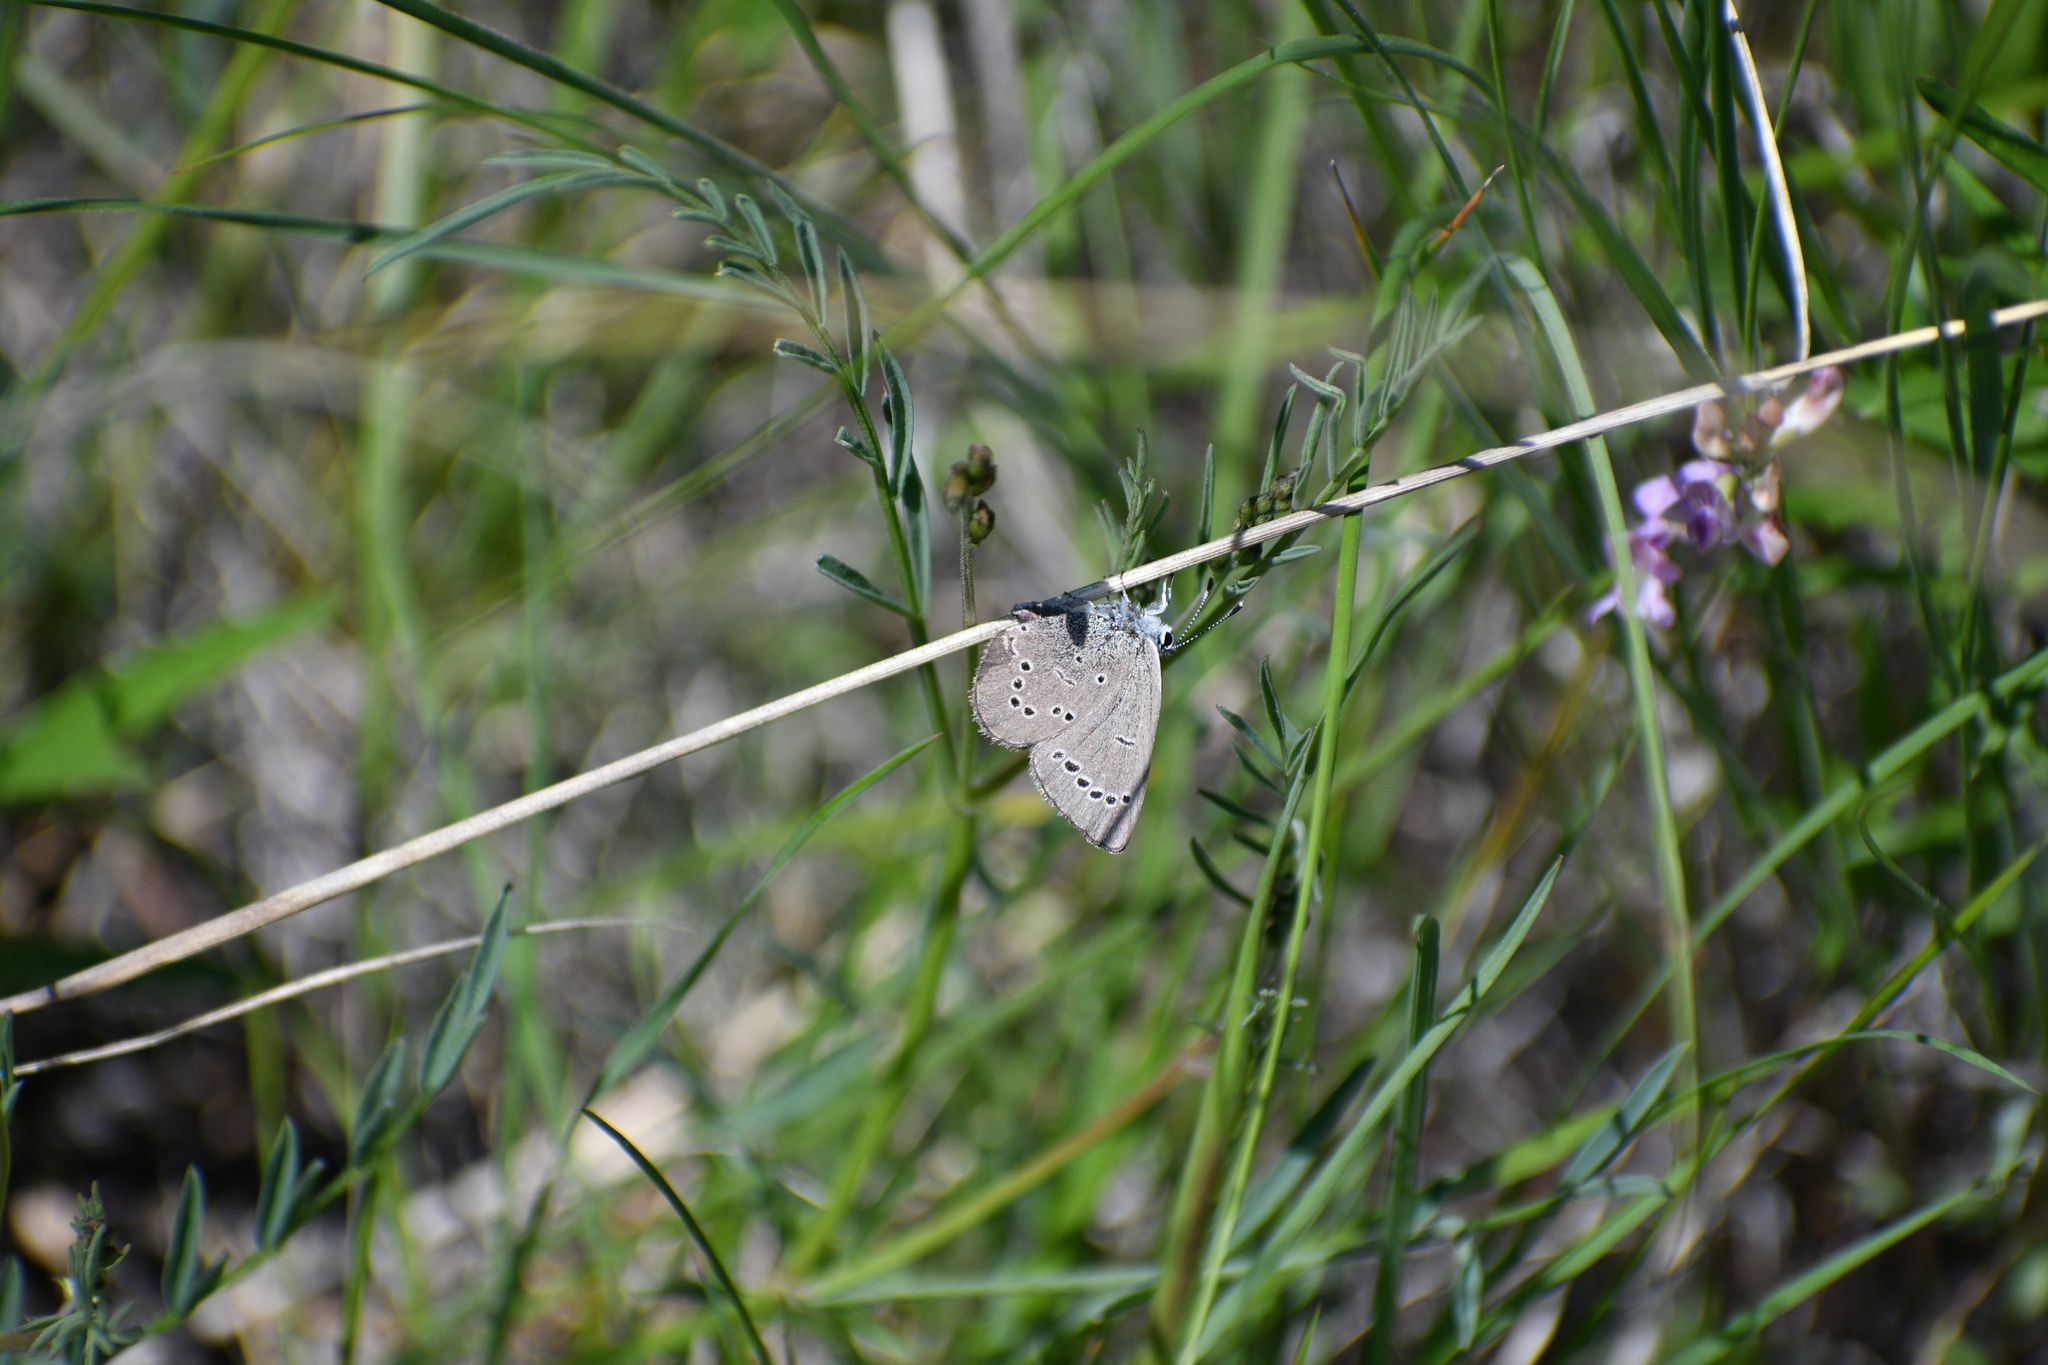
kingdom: Animalia
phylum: Arthropoda
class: Insecta
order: Lepidoptera
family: Lycaenidae
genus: Glaucopsyche
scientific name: Glaucopsyche lygdamus
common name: Silvery blue
